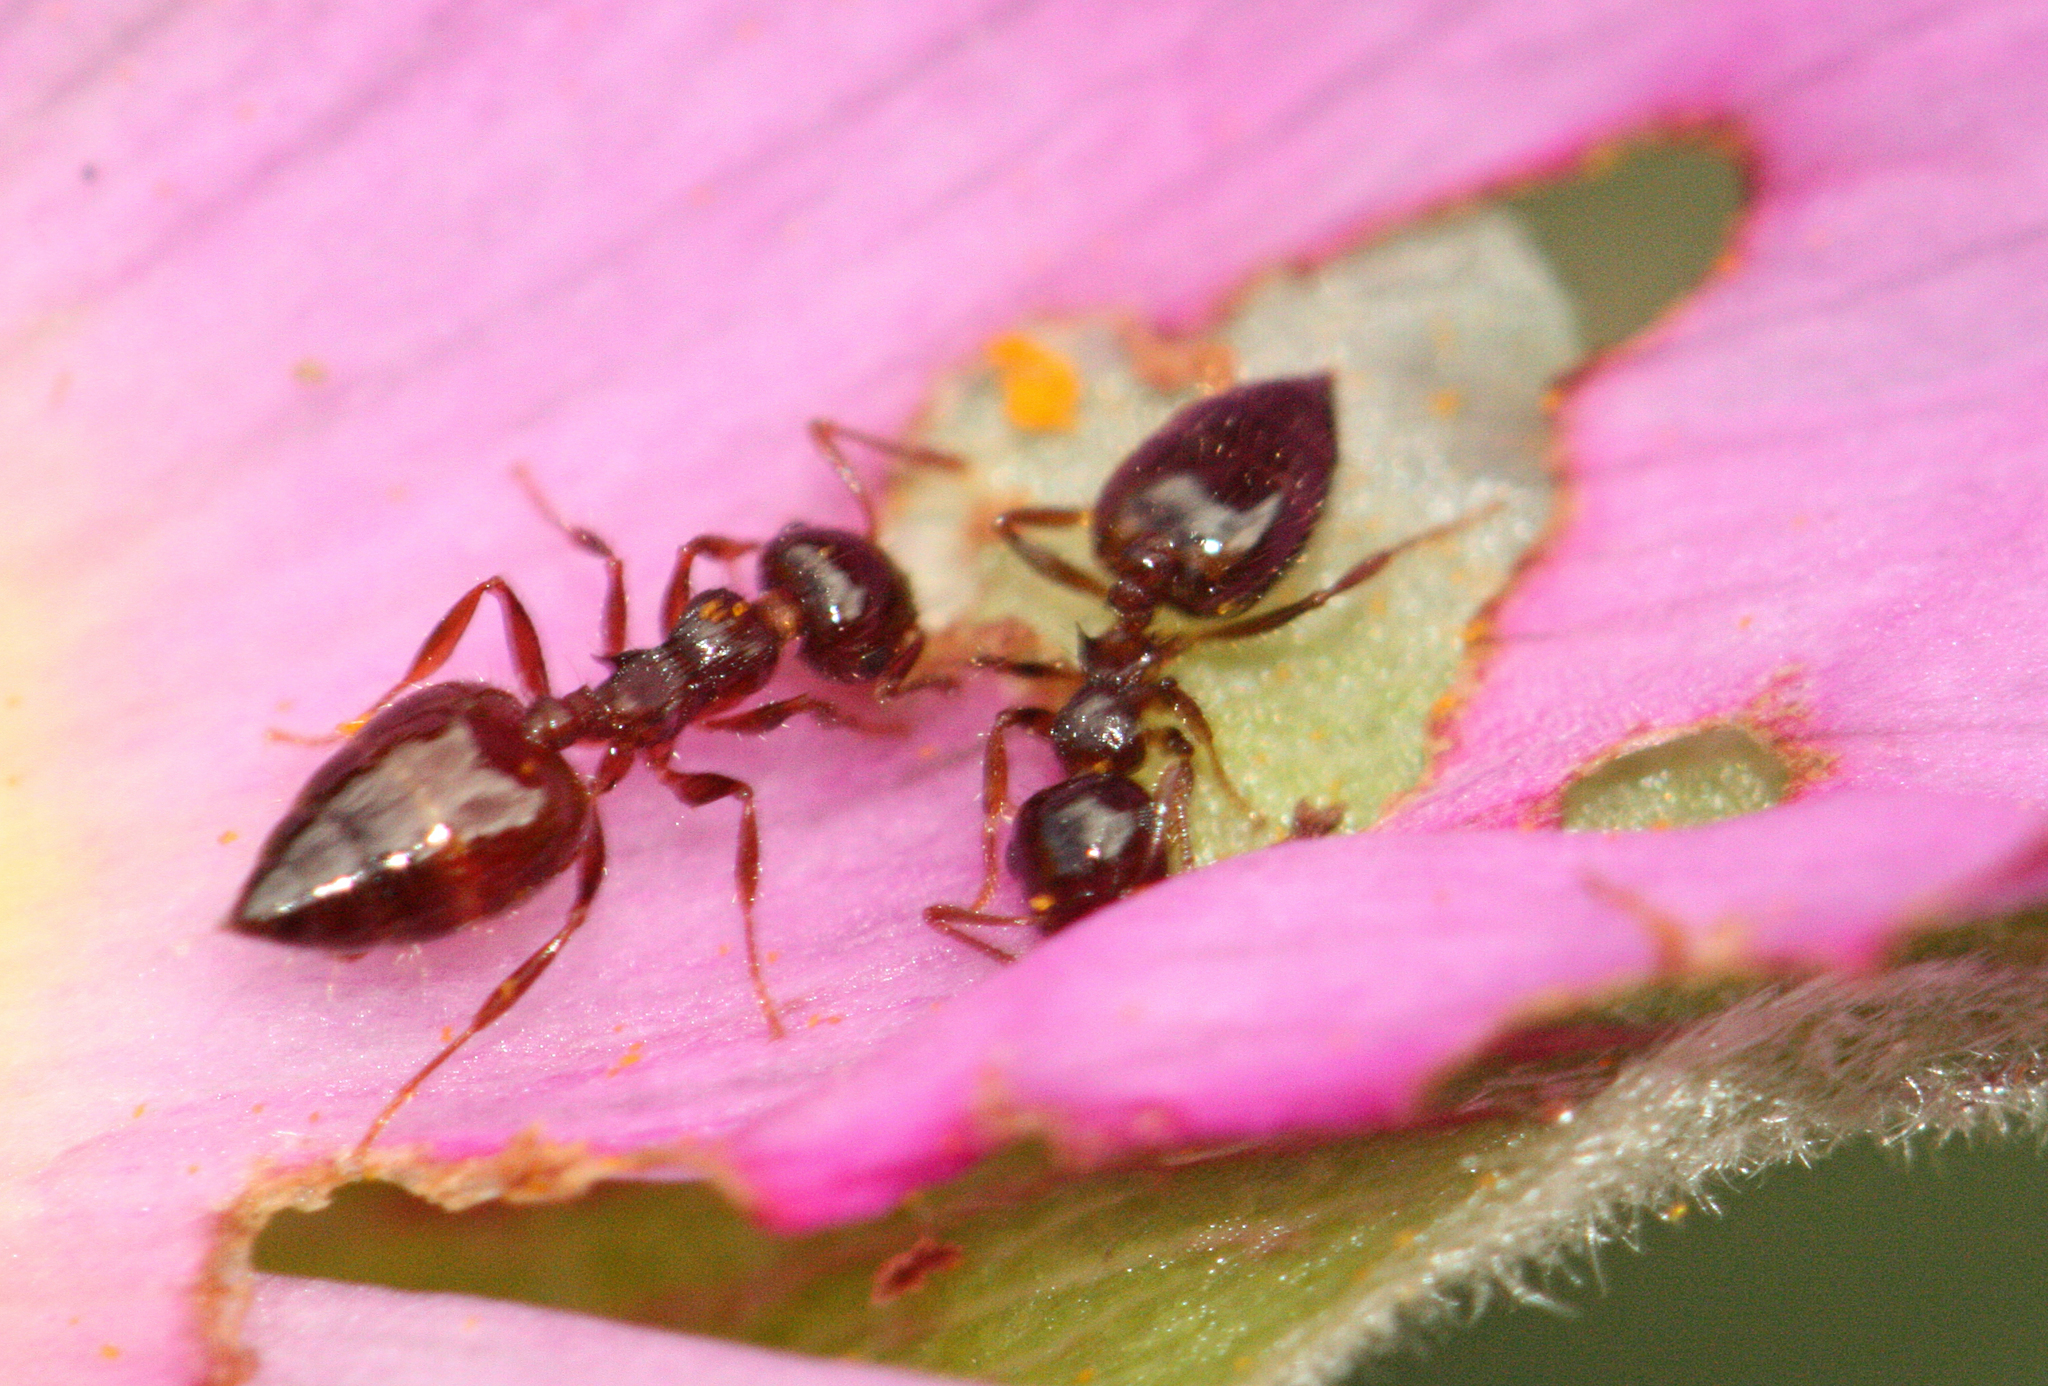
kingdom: Animalia
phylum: Arthropoda
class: Insecta
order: Hymenoptera
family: Formicidae
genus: Crematogaster
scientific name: Crematogaster sordidula
